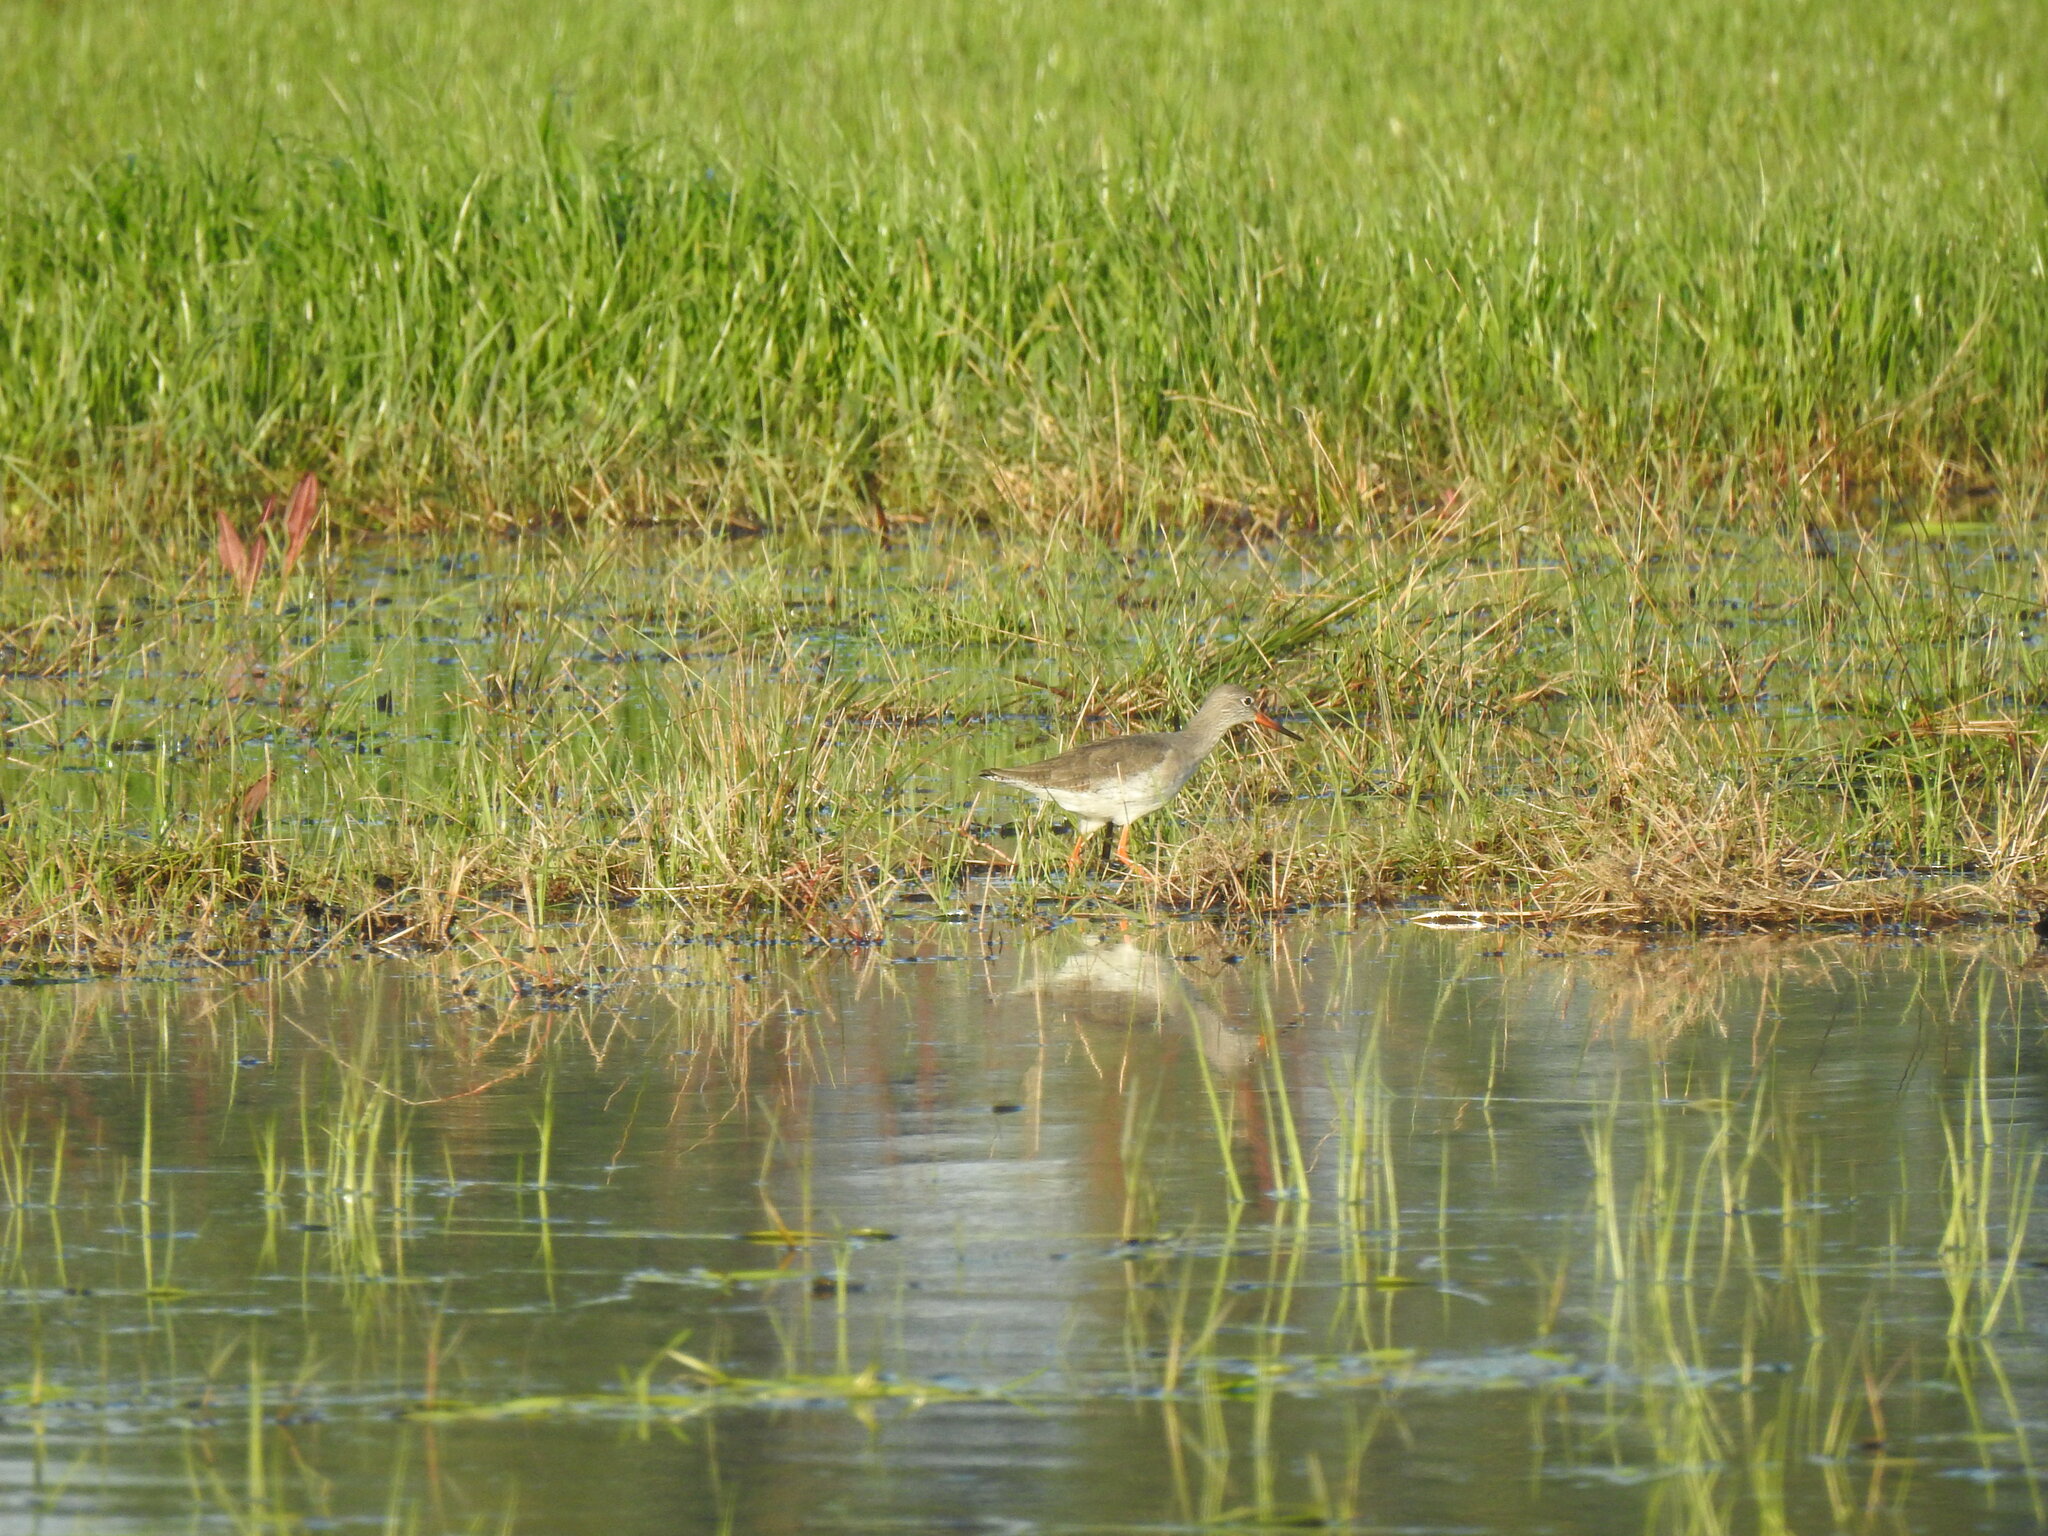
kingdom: Animalia
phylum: Chordata
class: Aves
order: Charadriiformes
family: Scolopacidae
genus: Tringa
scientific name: Tringa totanus
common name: Common redshank
